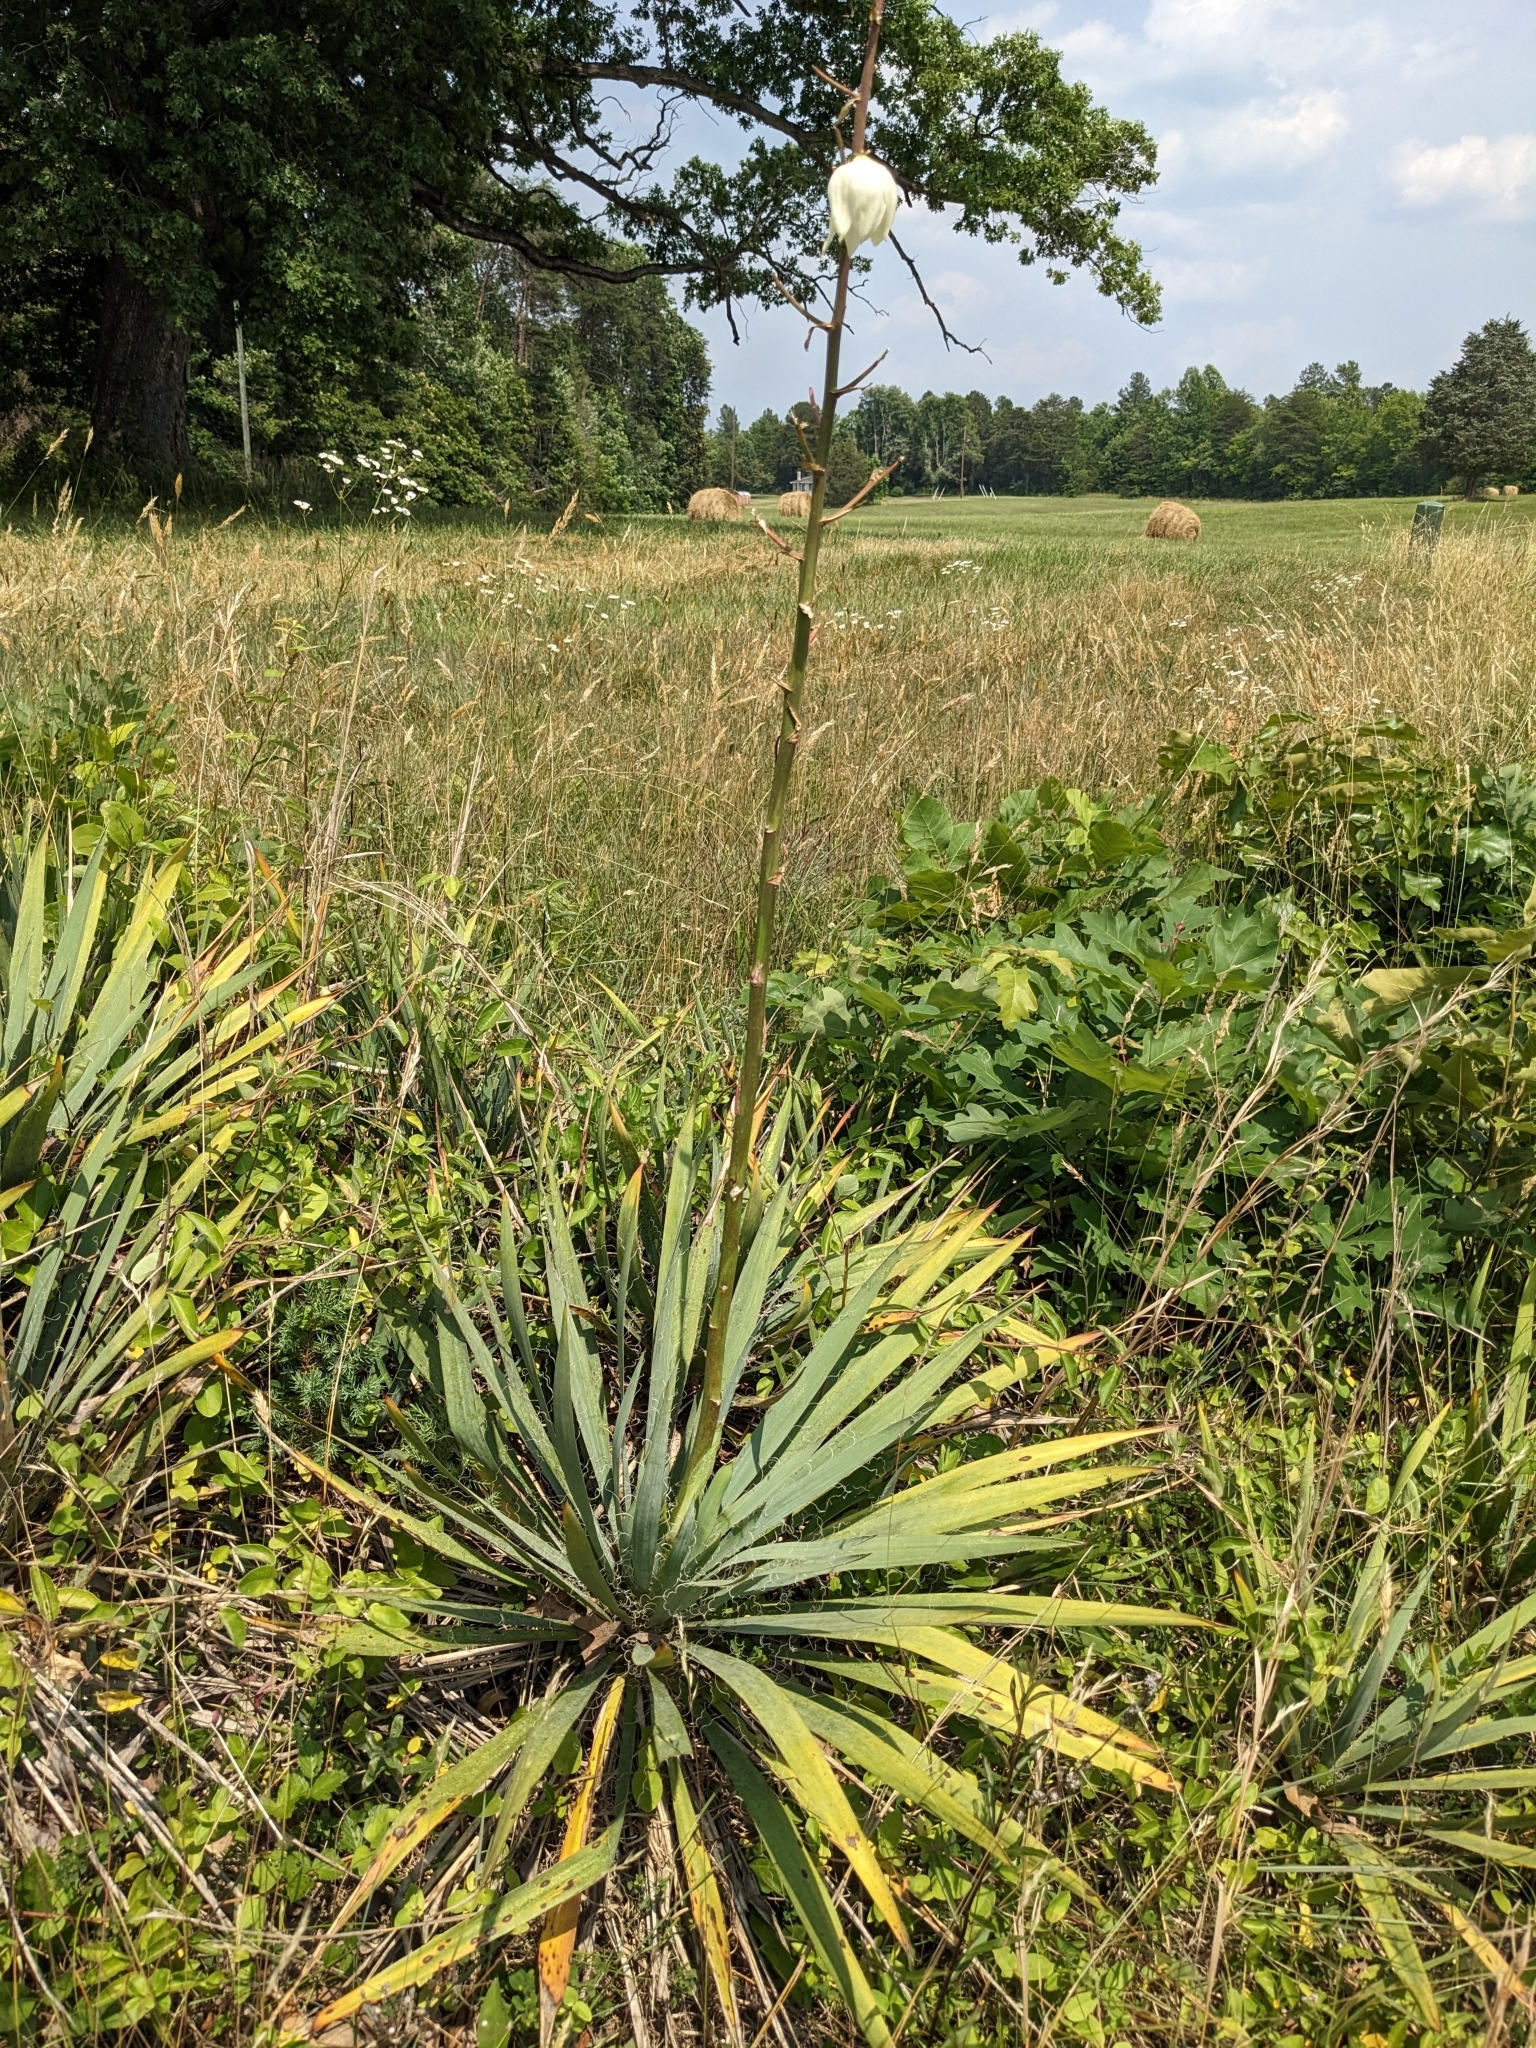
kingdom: Plantae
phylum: Tracheophyta
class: Liliopsida
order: Asparagales
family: Asparagaceae
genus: Yucca
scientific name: Yucca filamentosa
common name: Adam's-needle
